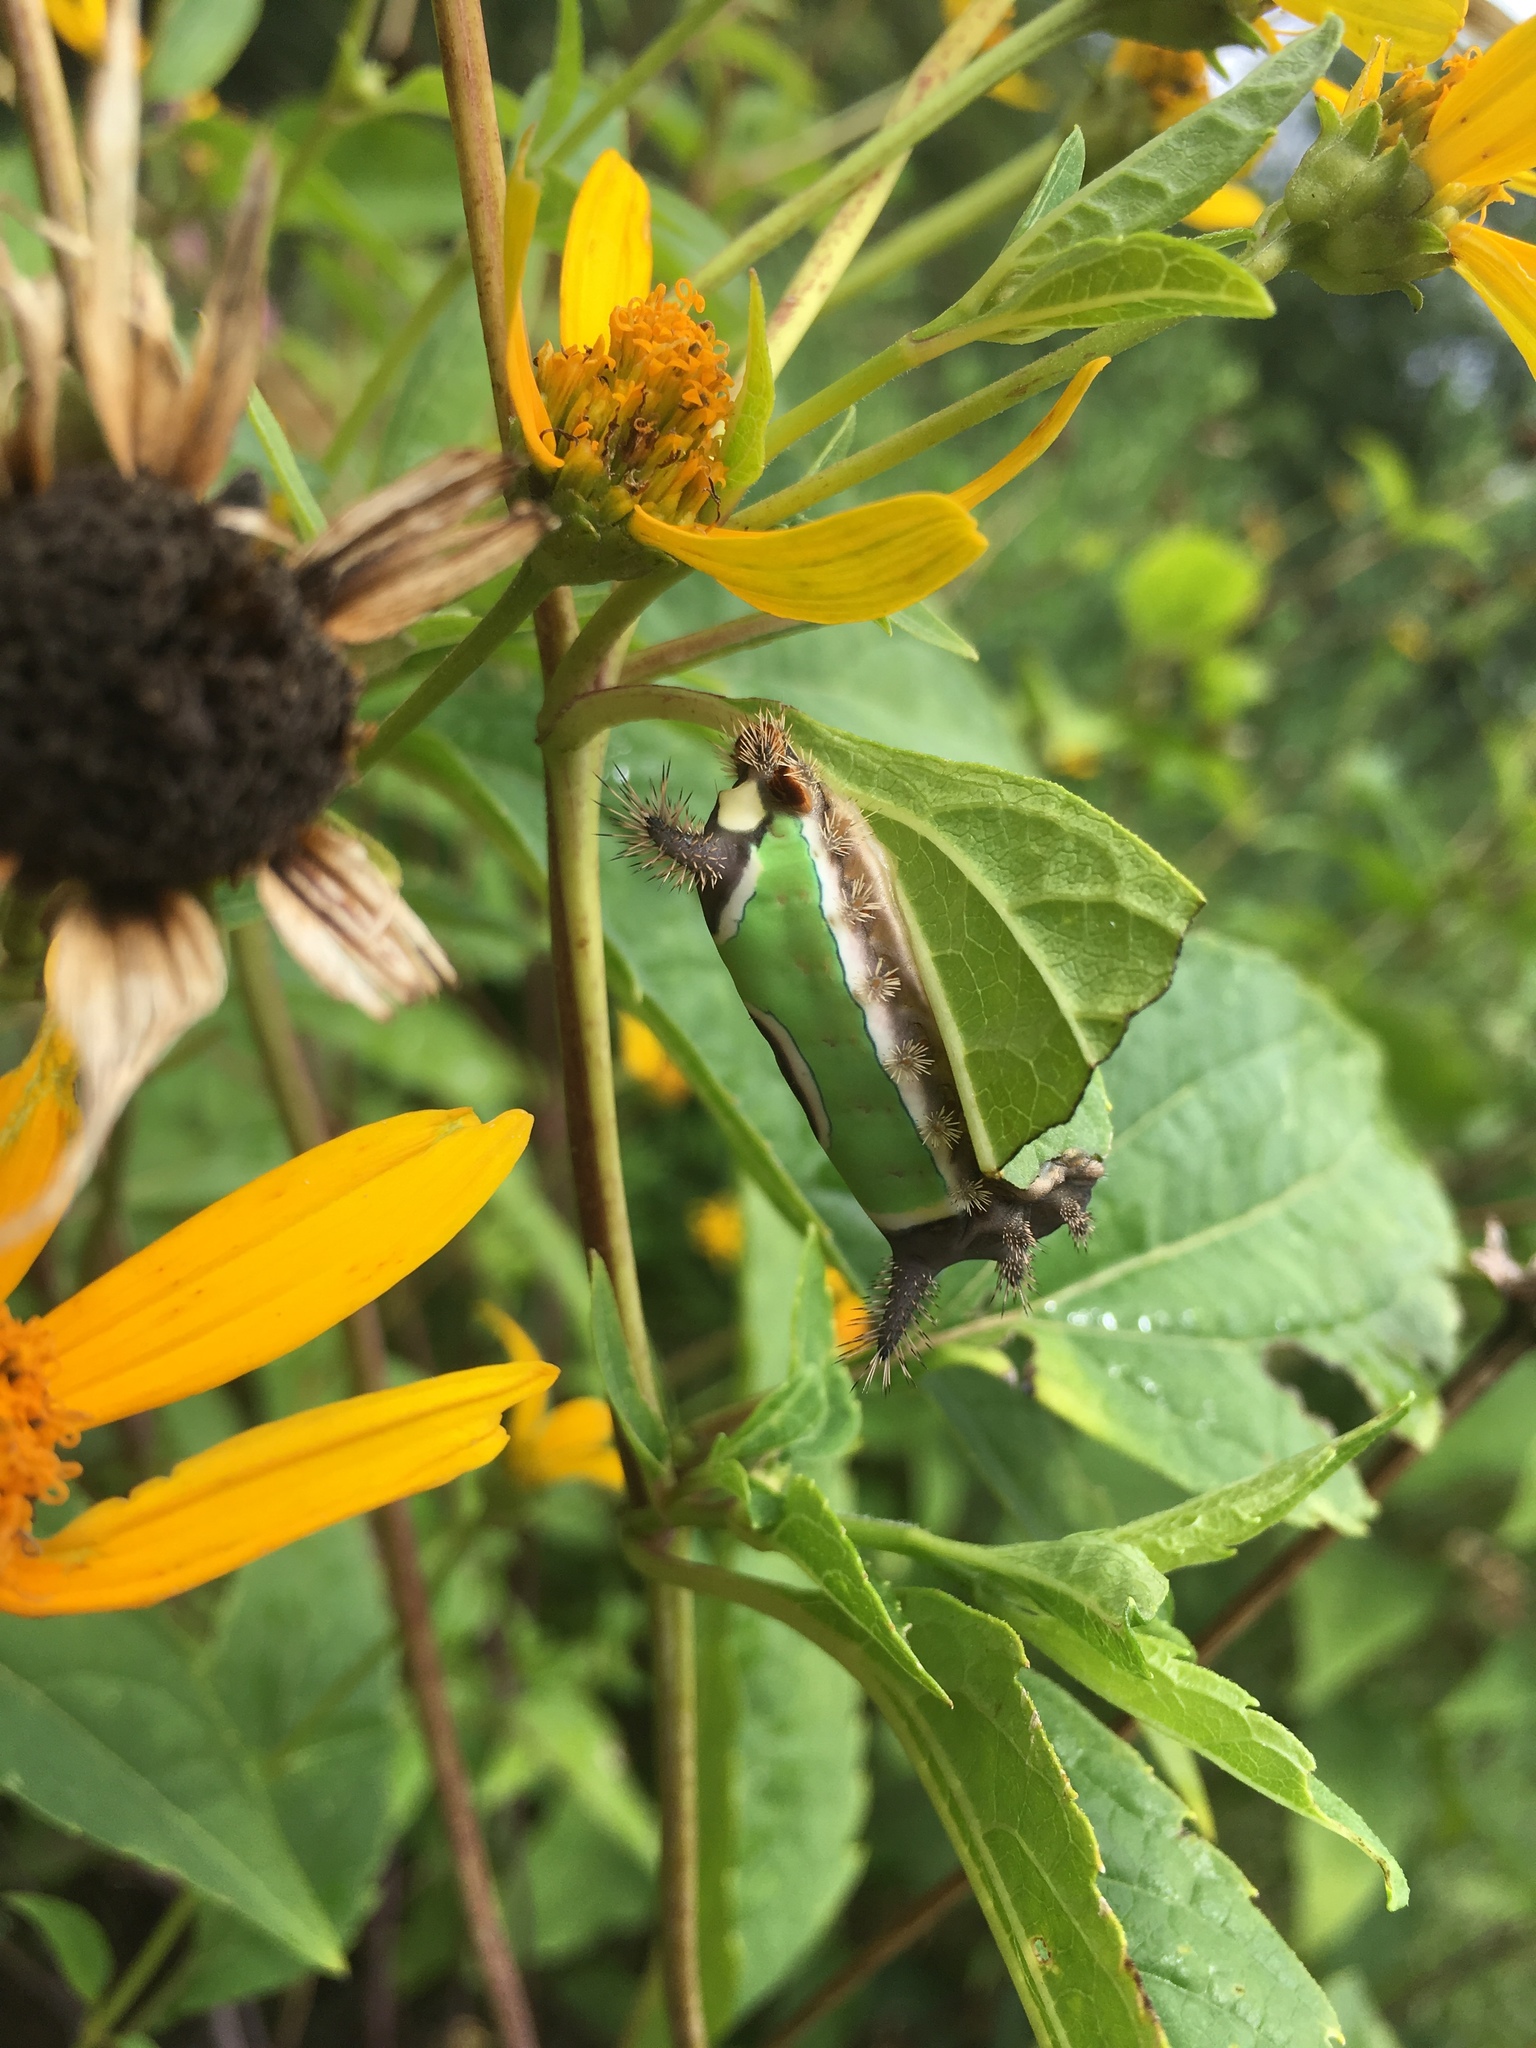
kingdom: Animalia
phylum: Arthropoda
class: Insecta
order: Lepidoptera
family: Limacodidae
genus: Acharia
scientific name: Acharia stimulea
